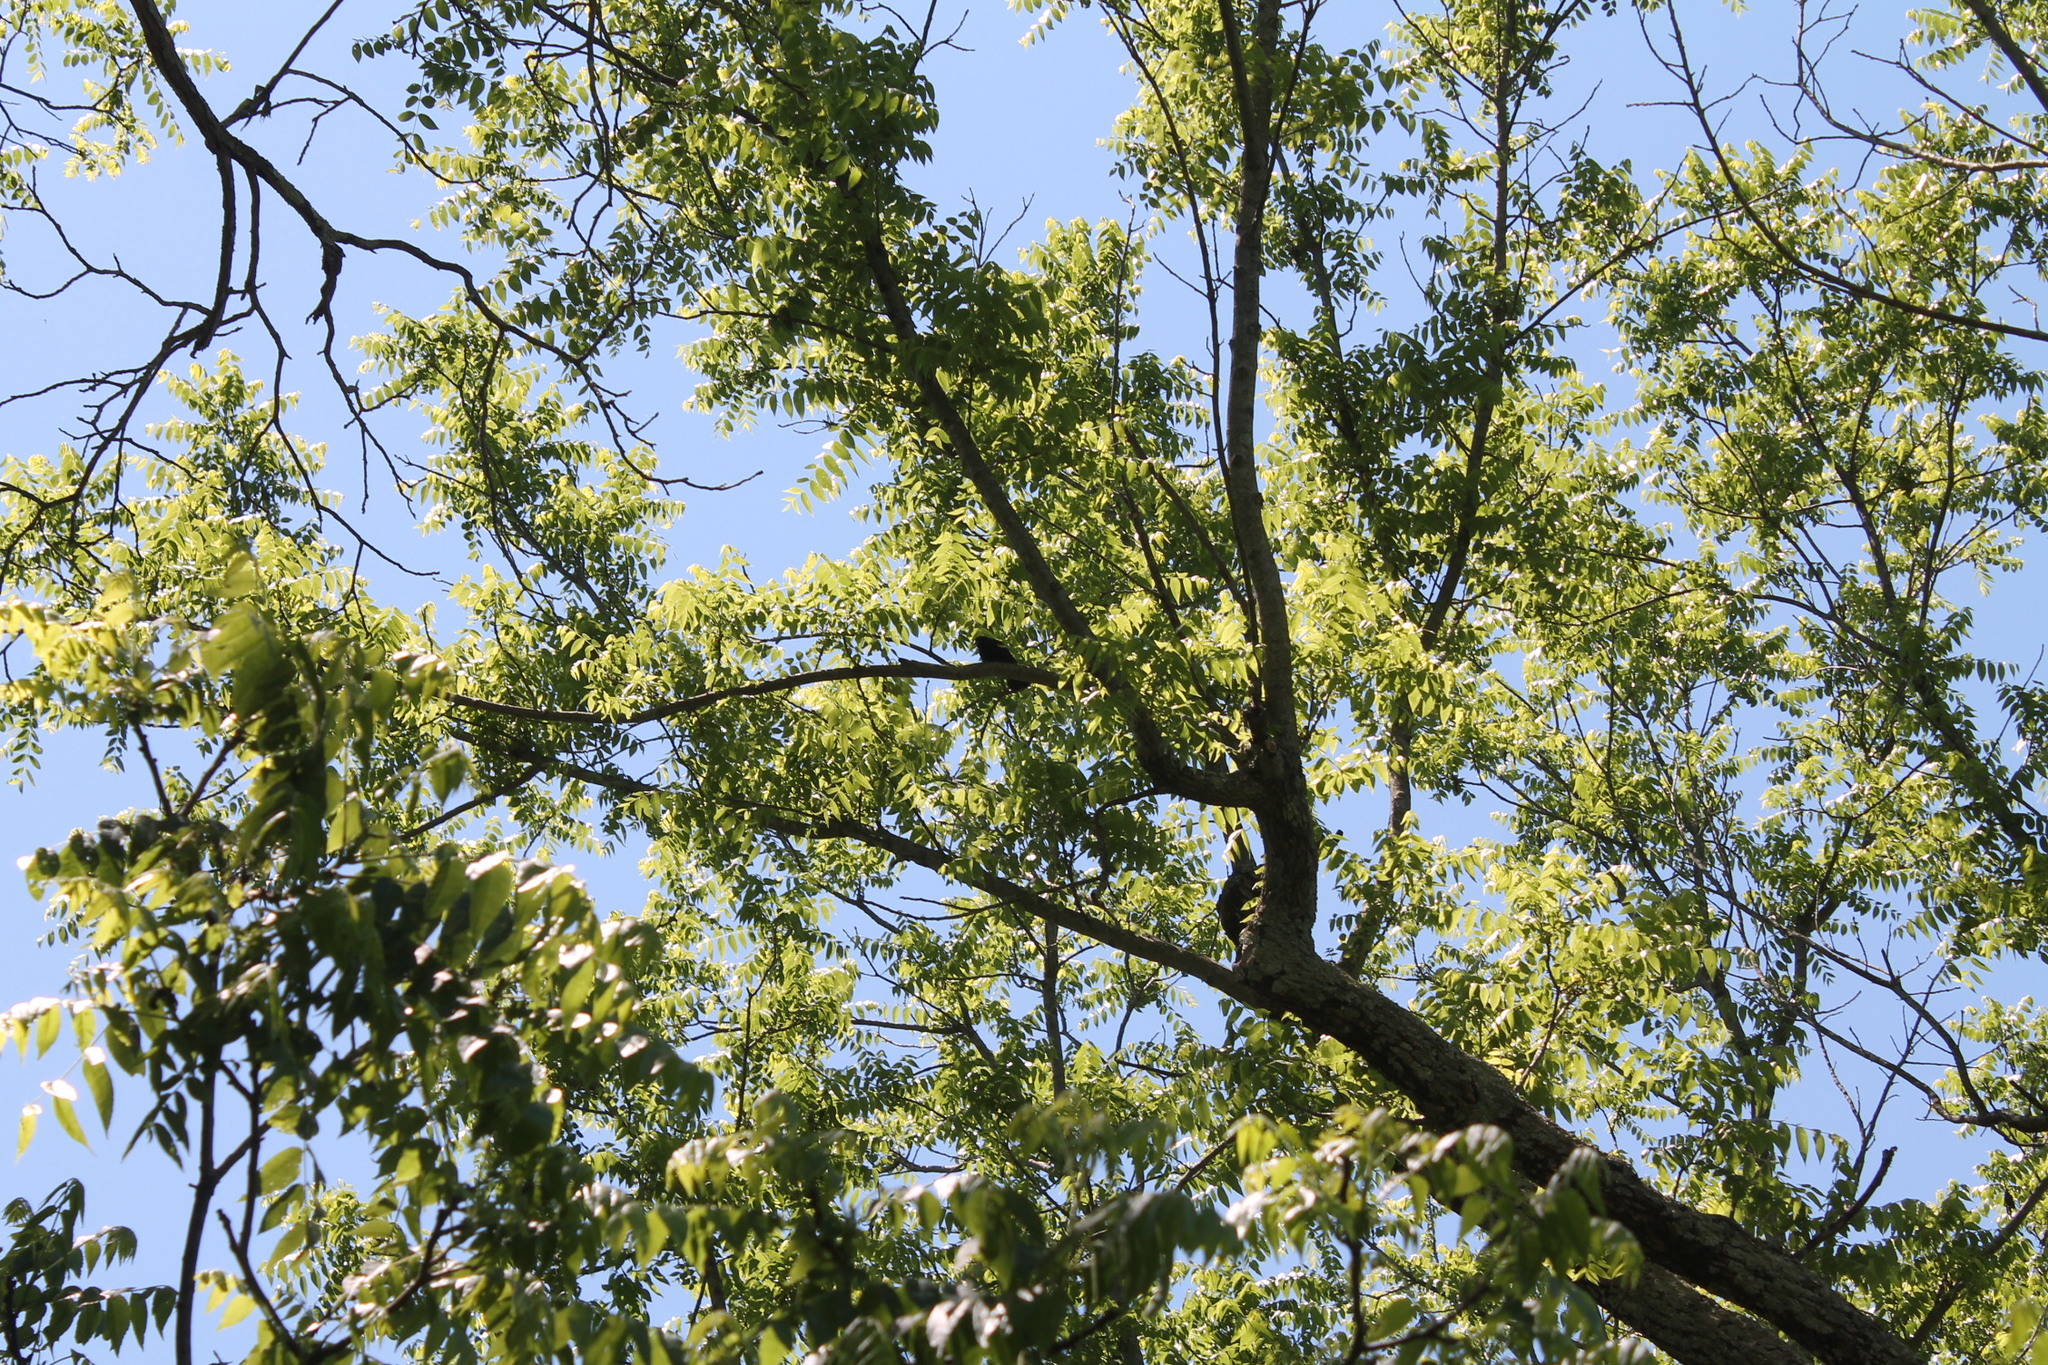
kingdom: Animalia
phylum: Chordata
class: Aves
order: Passeriformes
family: Icteridae
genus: Agelaius
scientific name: Agelaius phoeniceus
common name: Red-winged blackbird
